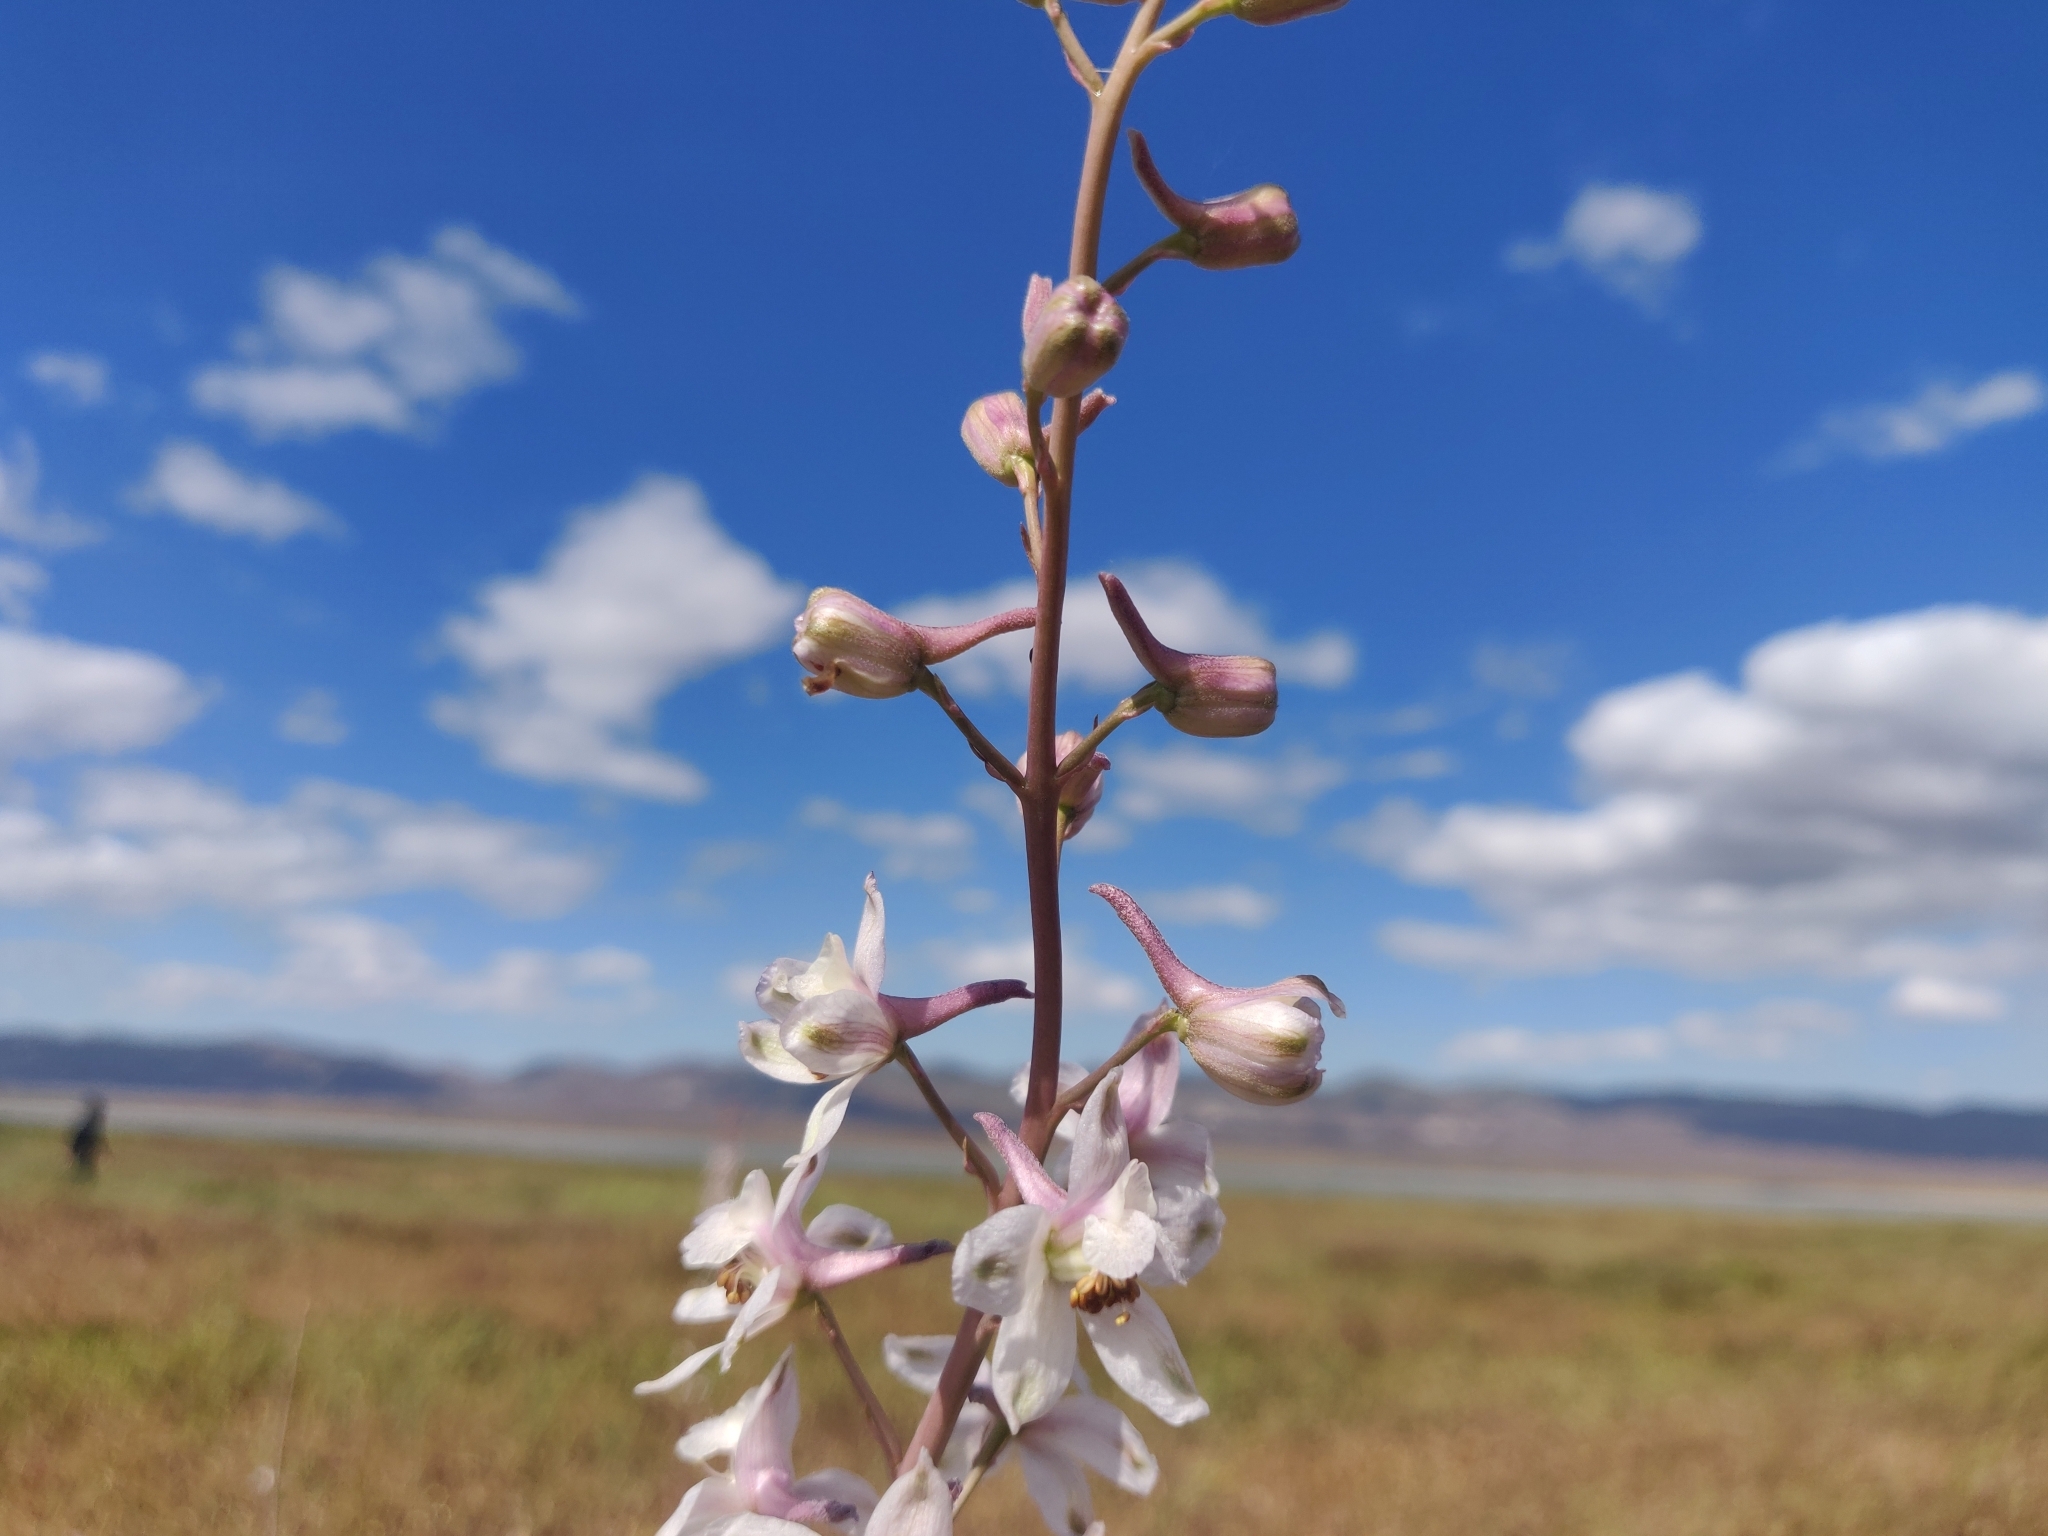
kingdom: Plantae
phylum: Tracheophyta
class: Magnoliopsida
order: Ranunculales
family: Ranunculaceae
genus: Delphinium
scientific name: Delphinium recurvatum
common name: Recurved larkspur
